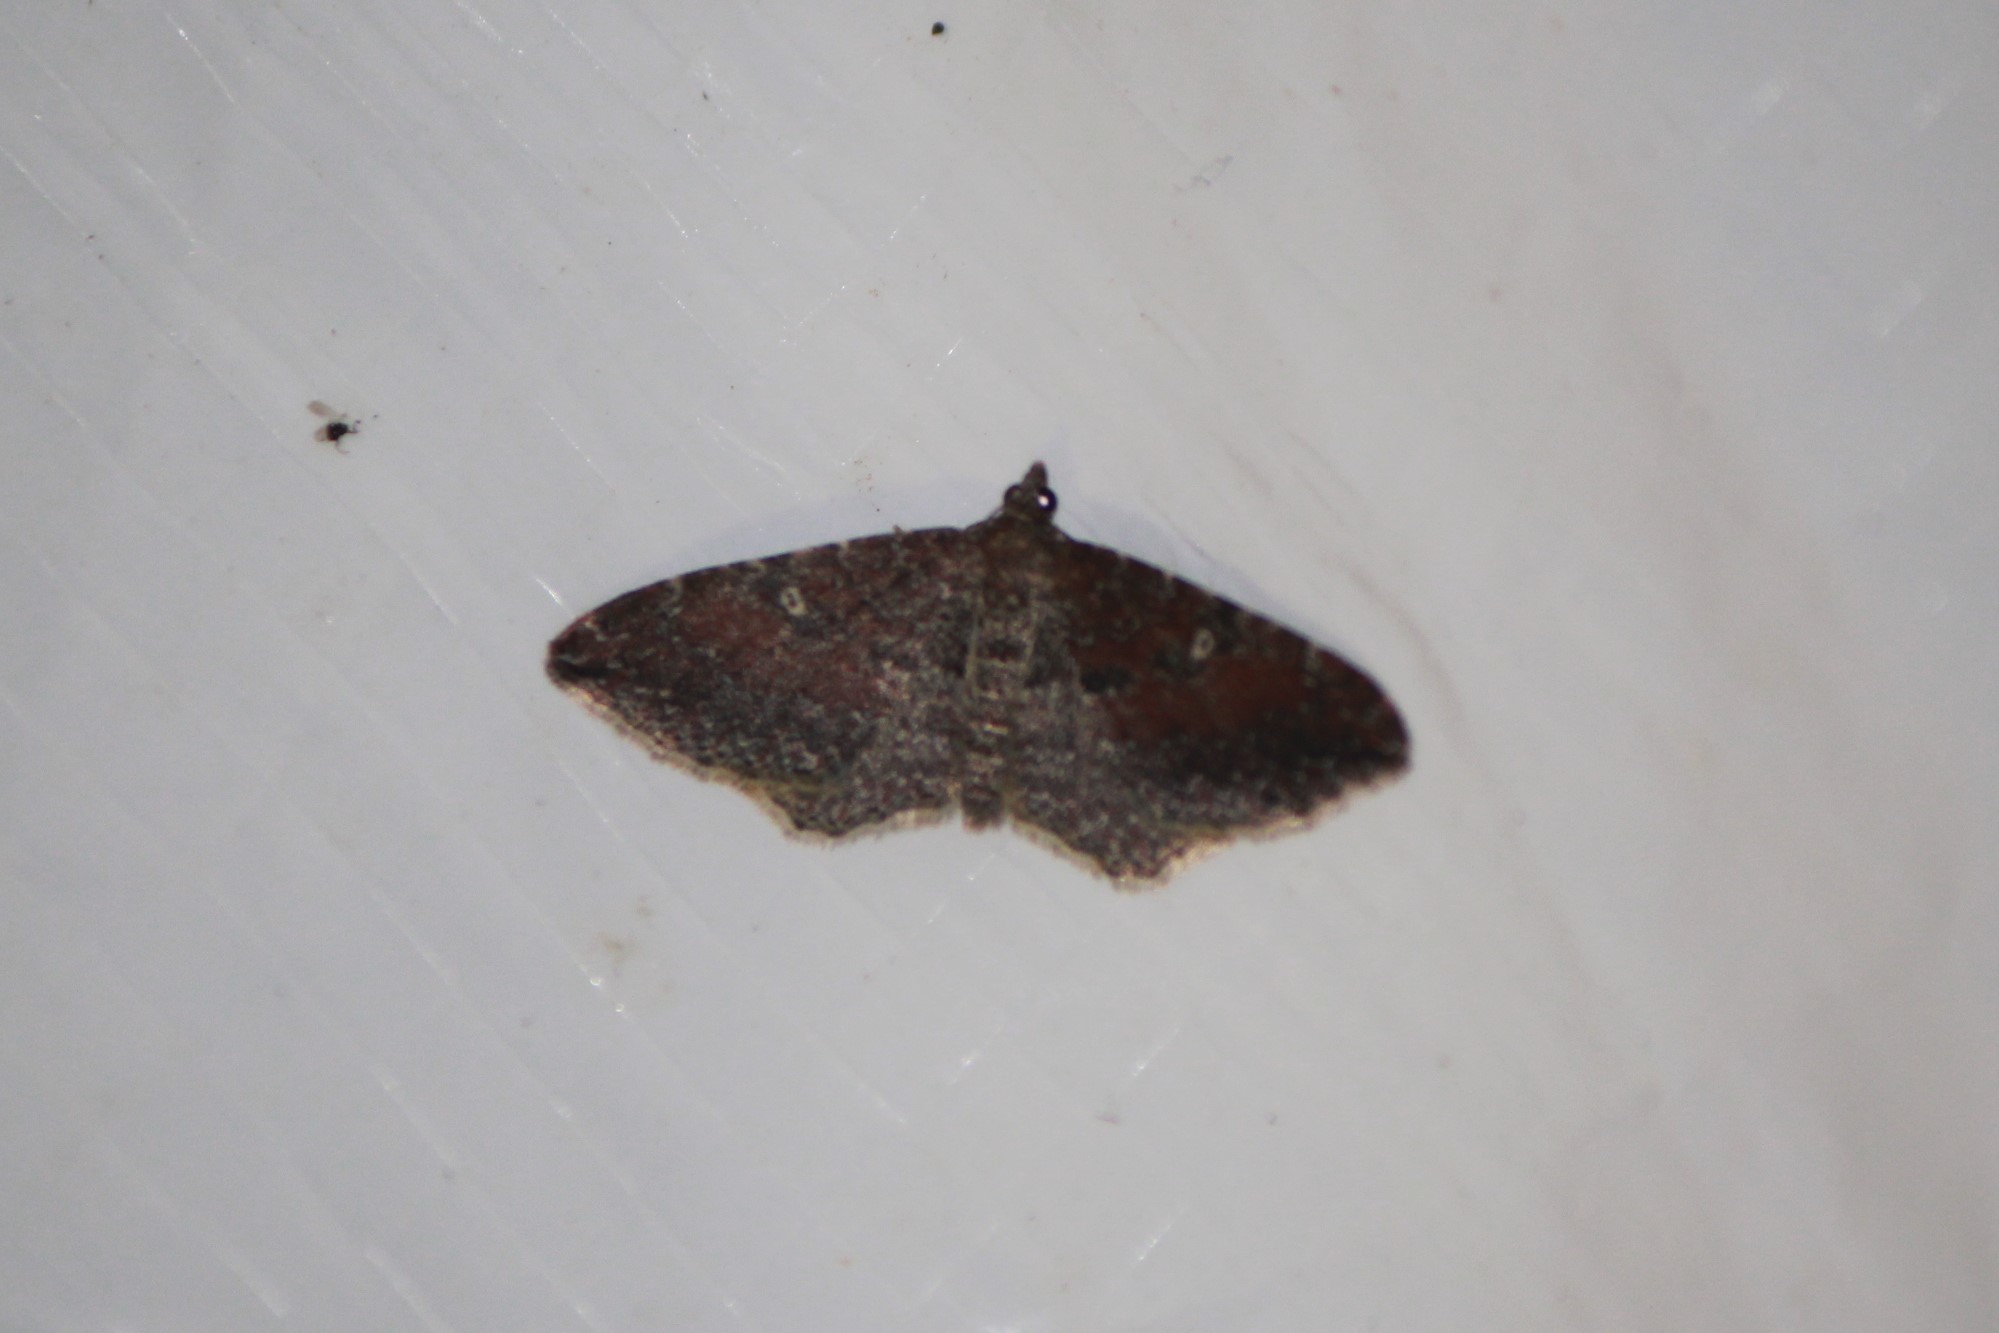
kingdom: Animalia
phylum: Arthropoda
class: Insecta
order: Lepidoptera
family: Geometridae
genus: Orthonama
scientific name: Orthonama obstipata
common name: The gem
